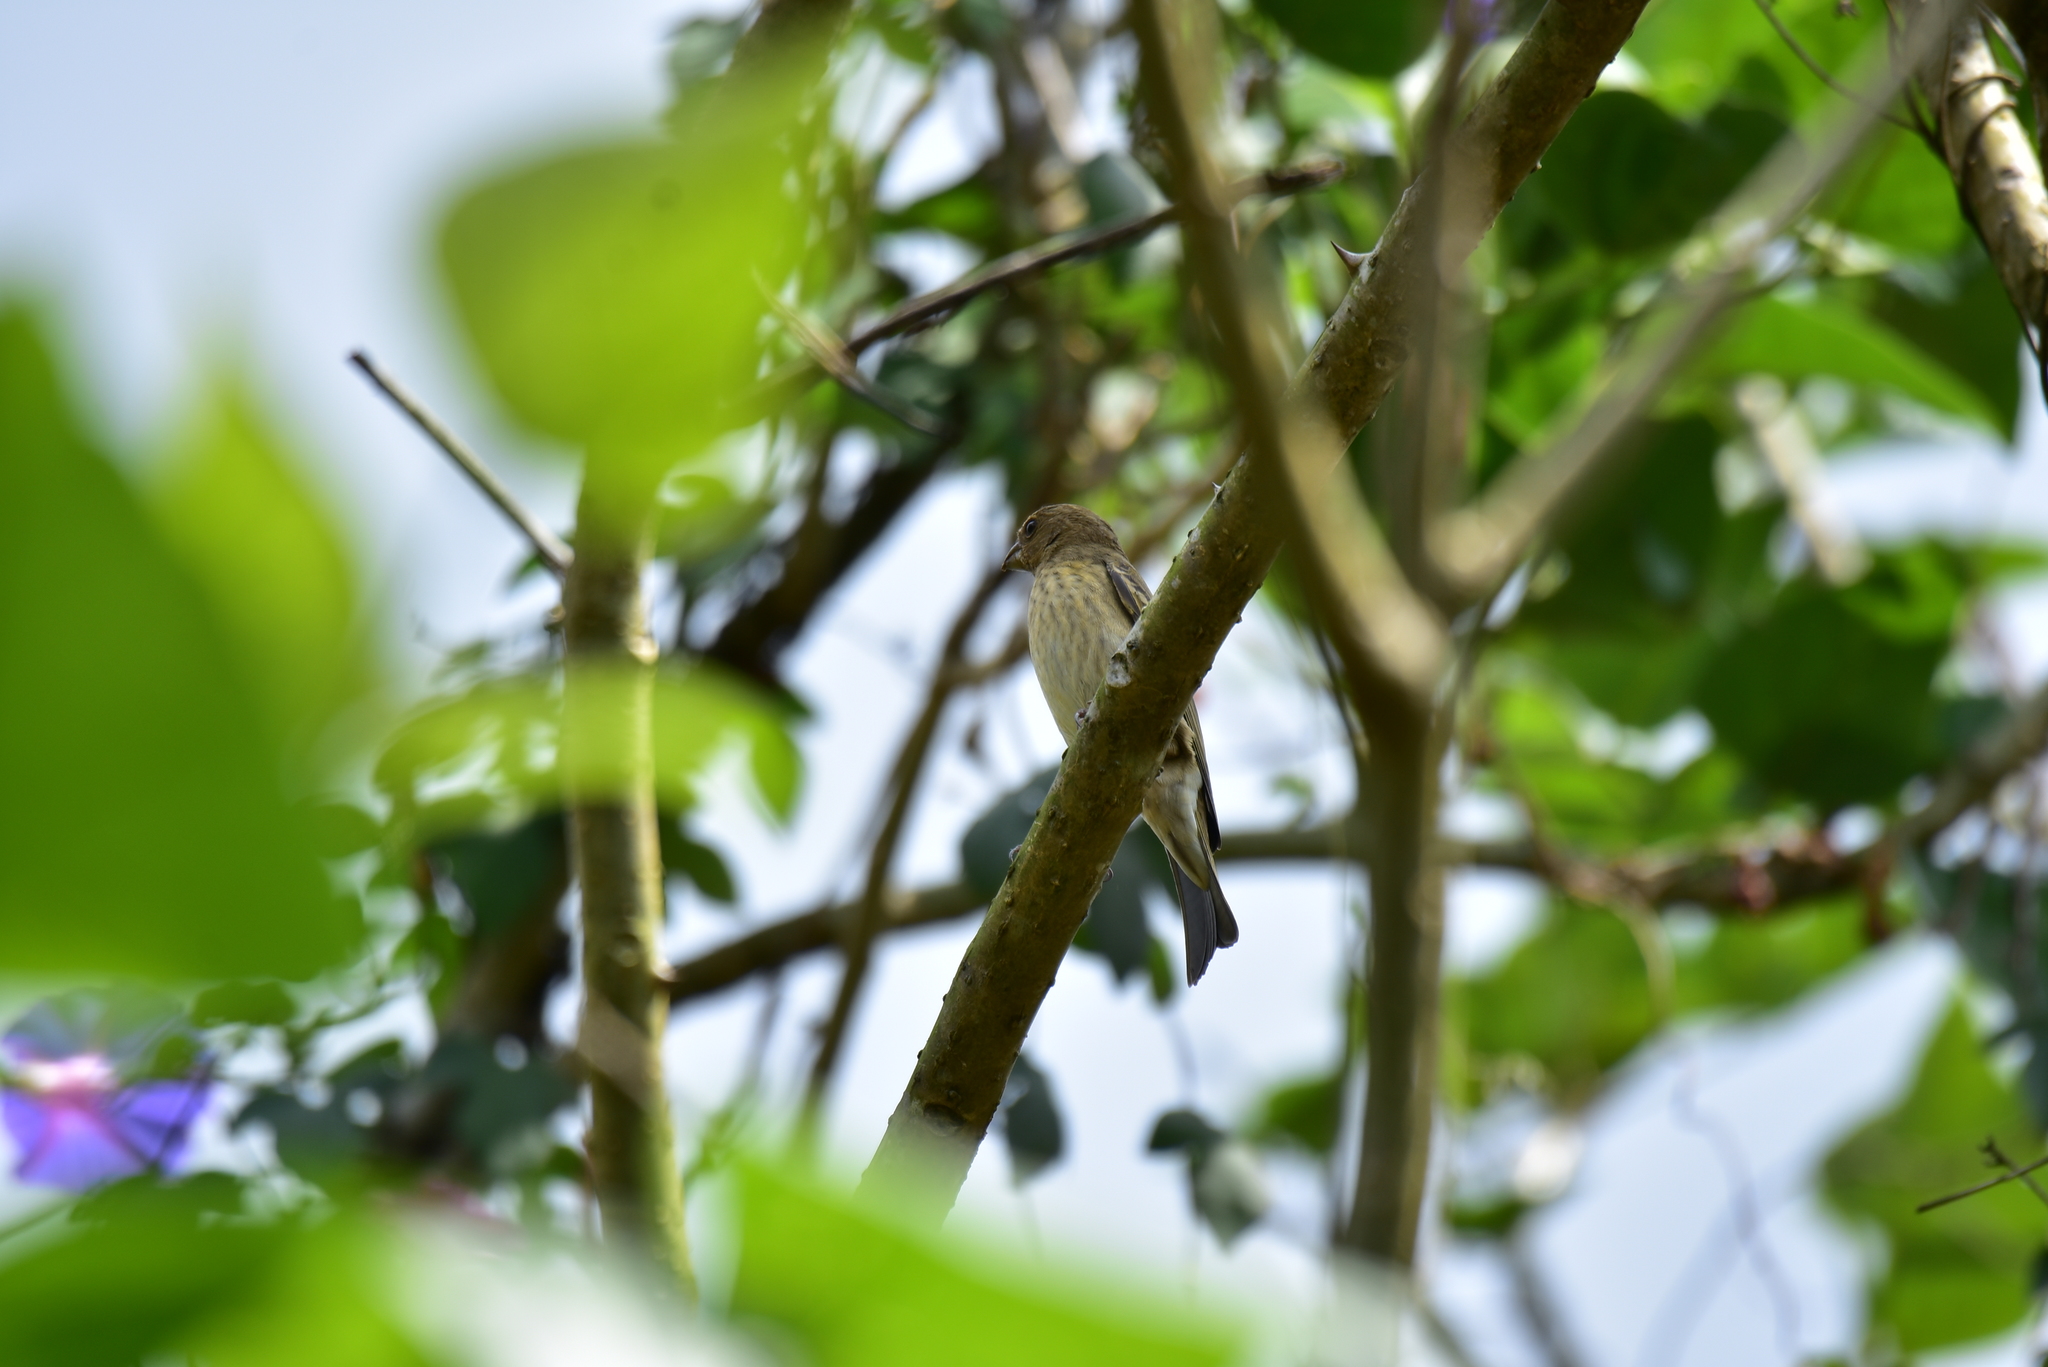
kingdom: Animalia
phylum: Chordata
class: Aves
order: Passeriformes
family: Fringillidae
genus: Carpodacus
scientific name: Carpodacus erythrinus
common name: Common rosefinch
